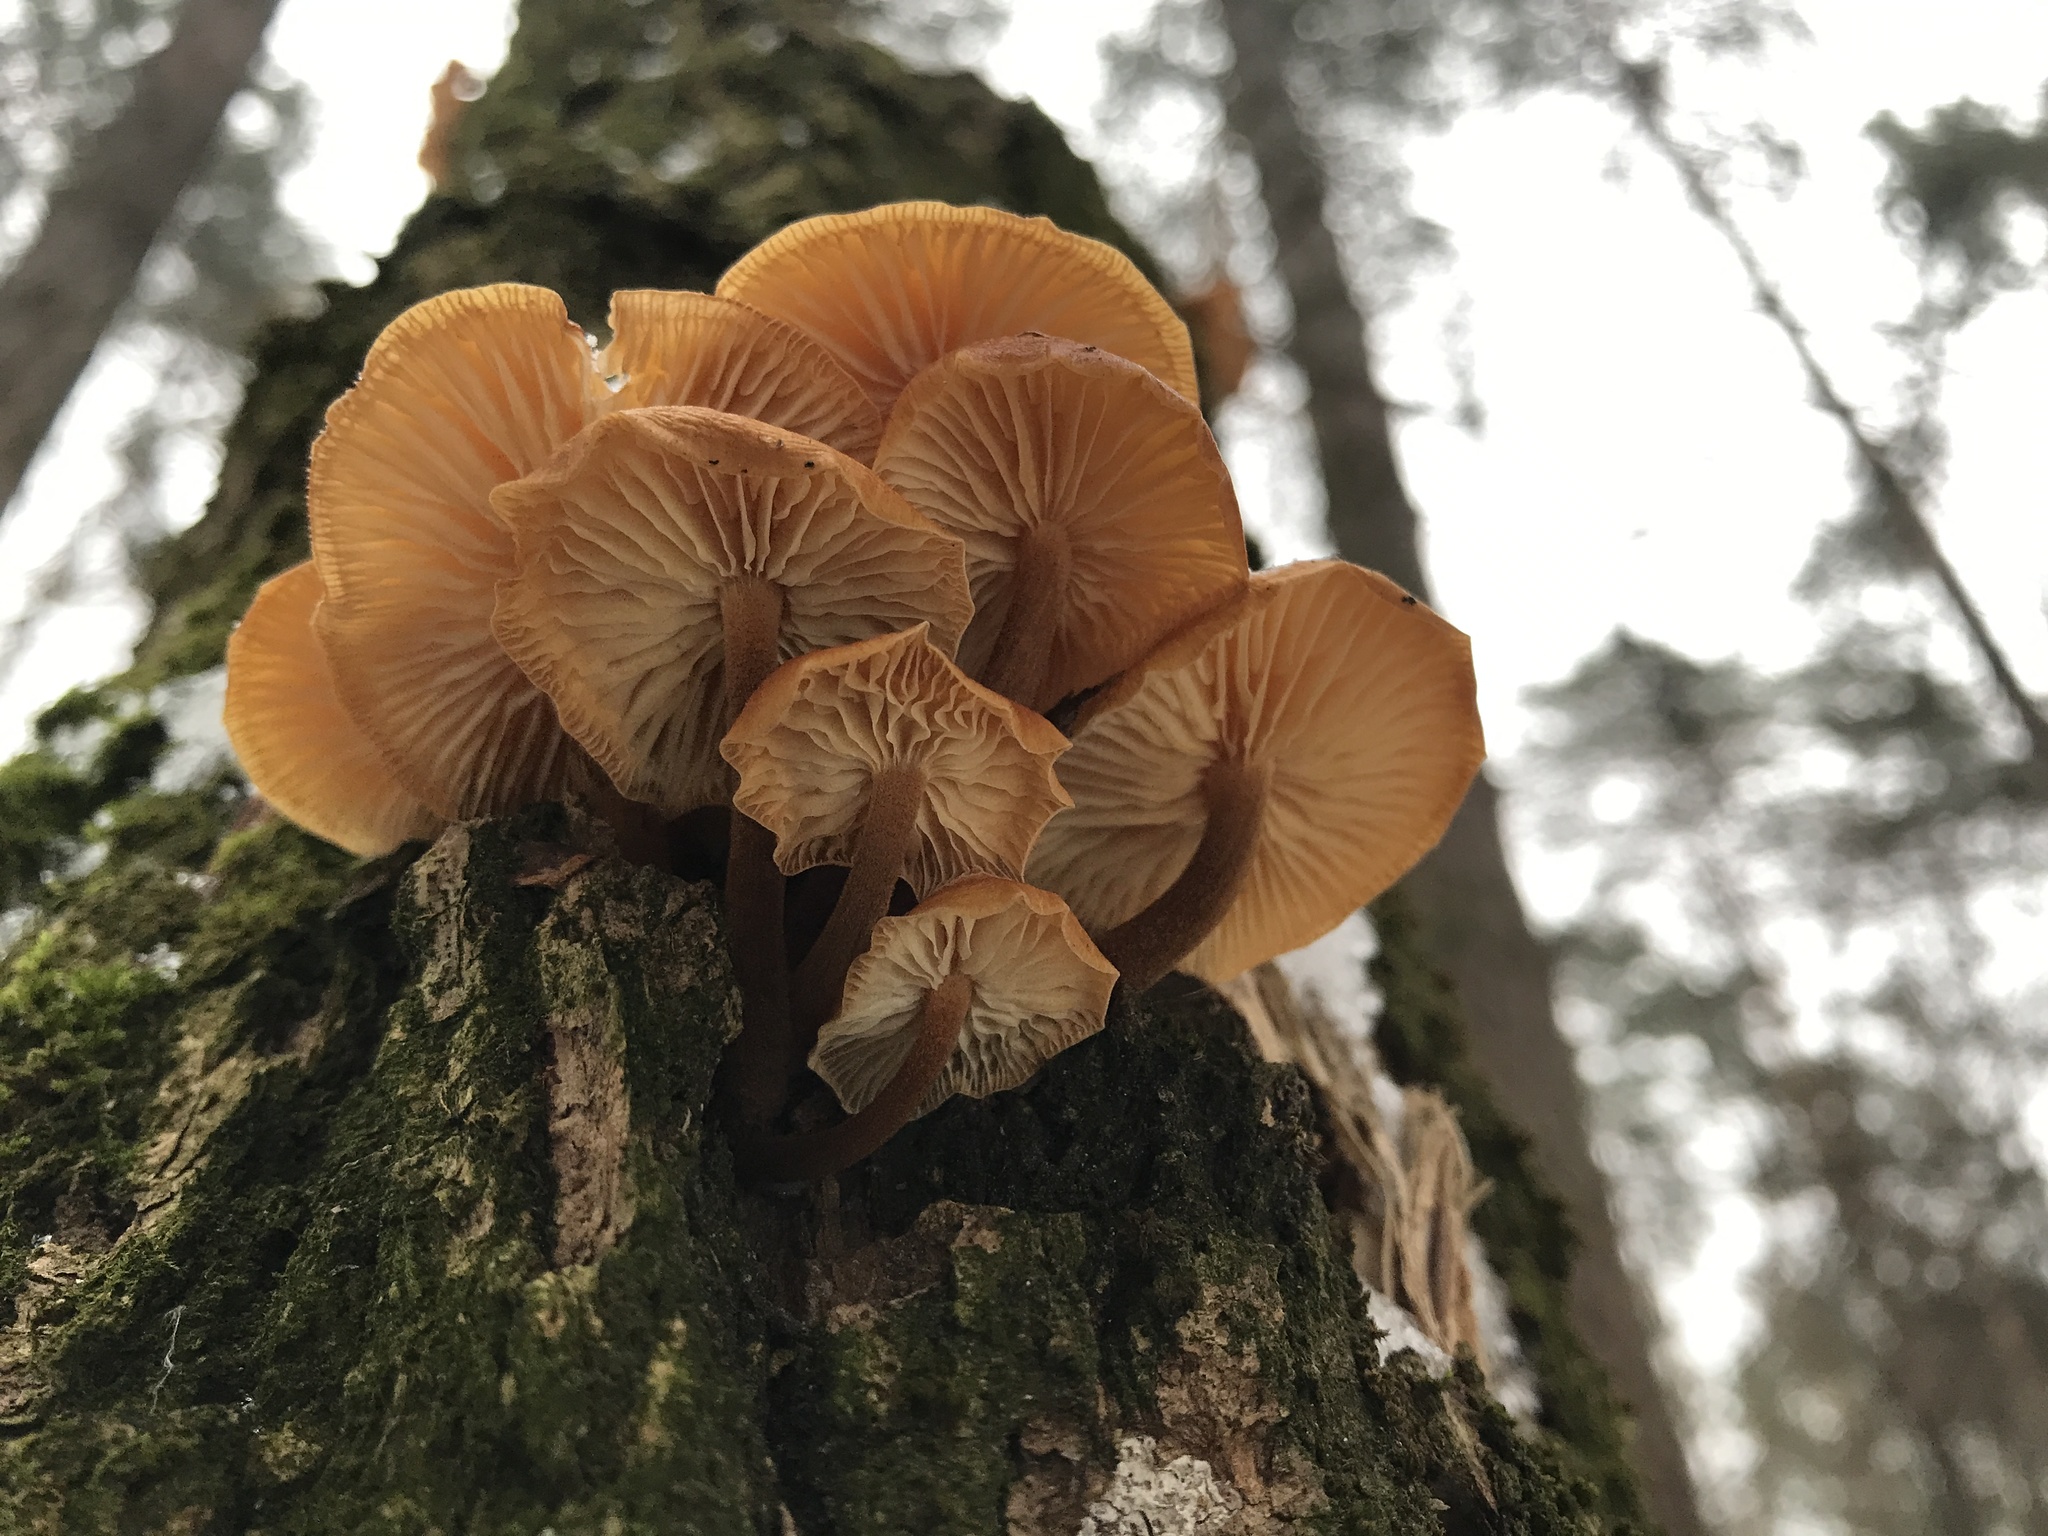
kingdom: Fungi
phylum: Basidiomycota
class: Agaricomycetes
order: Agaricales
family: Physalacriaceae
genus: Flammulina
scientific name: Flammulina
